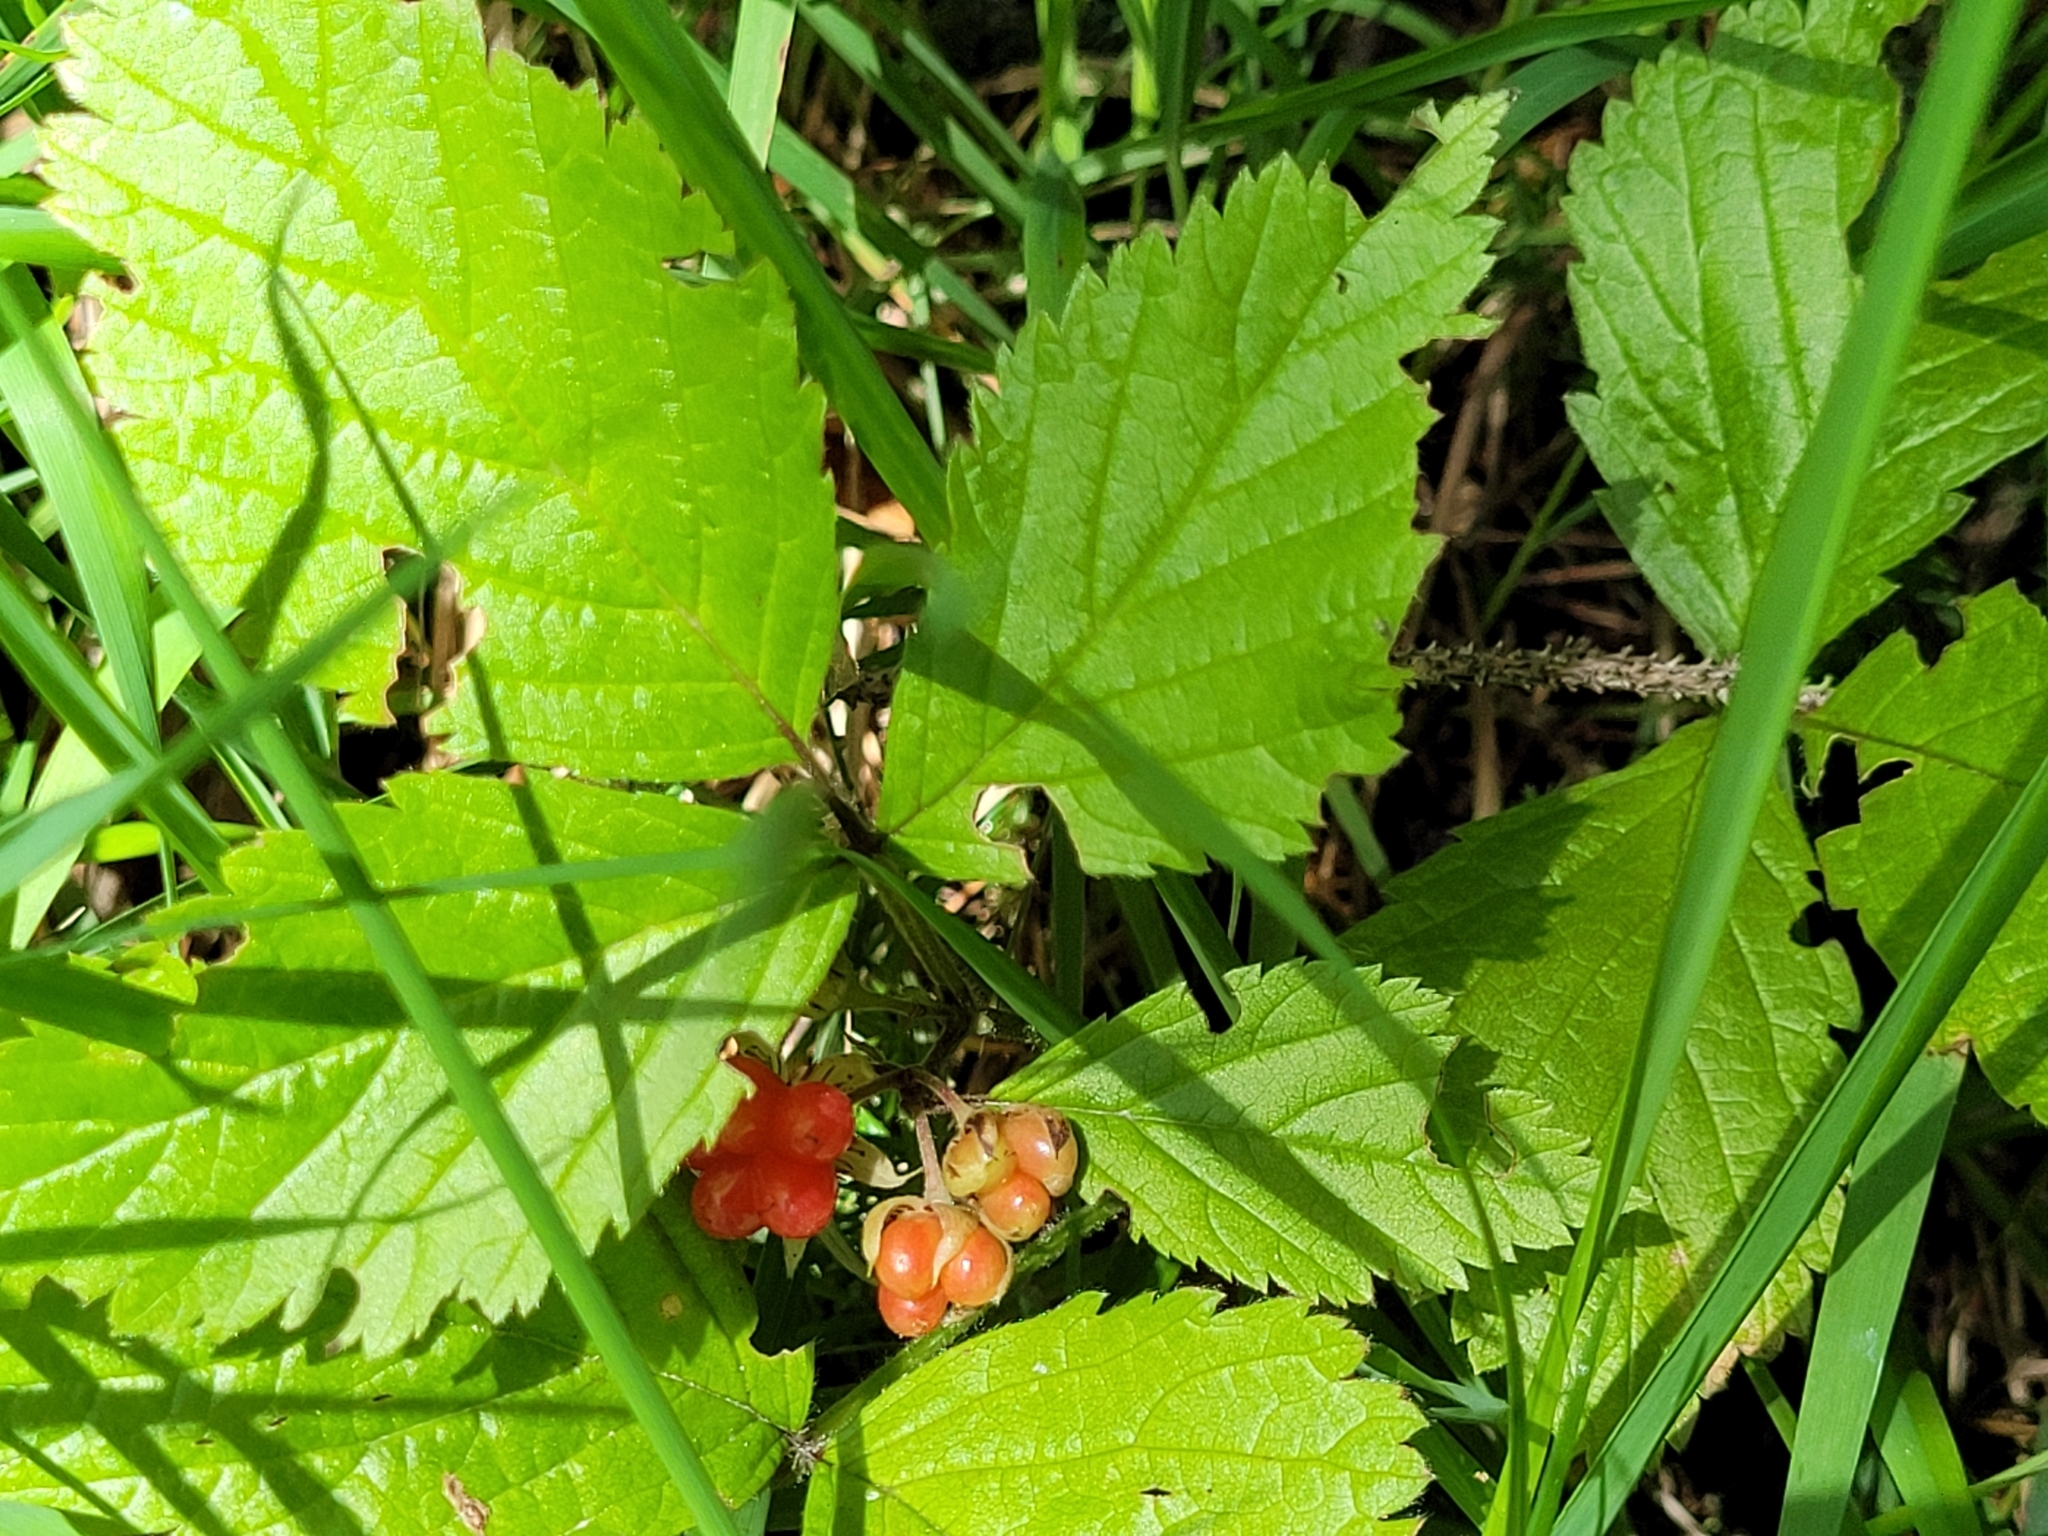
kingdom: Plantae
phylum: Tracheophyta
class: Magnoliopsida
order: Rosales
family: Rosaceae
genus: Rubus
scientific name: Rubus saxatilis
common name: Stone bramble
